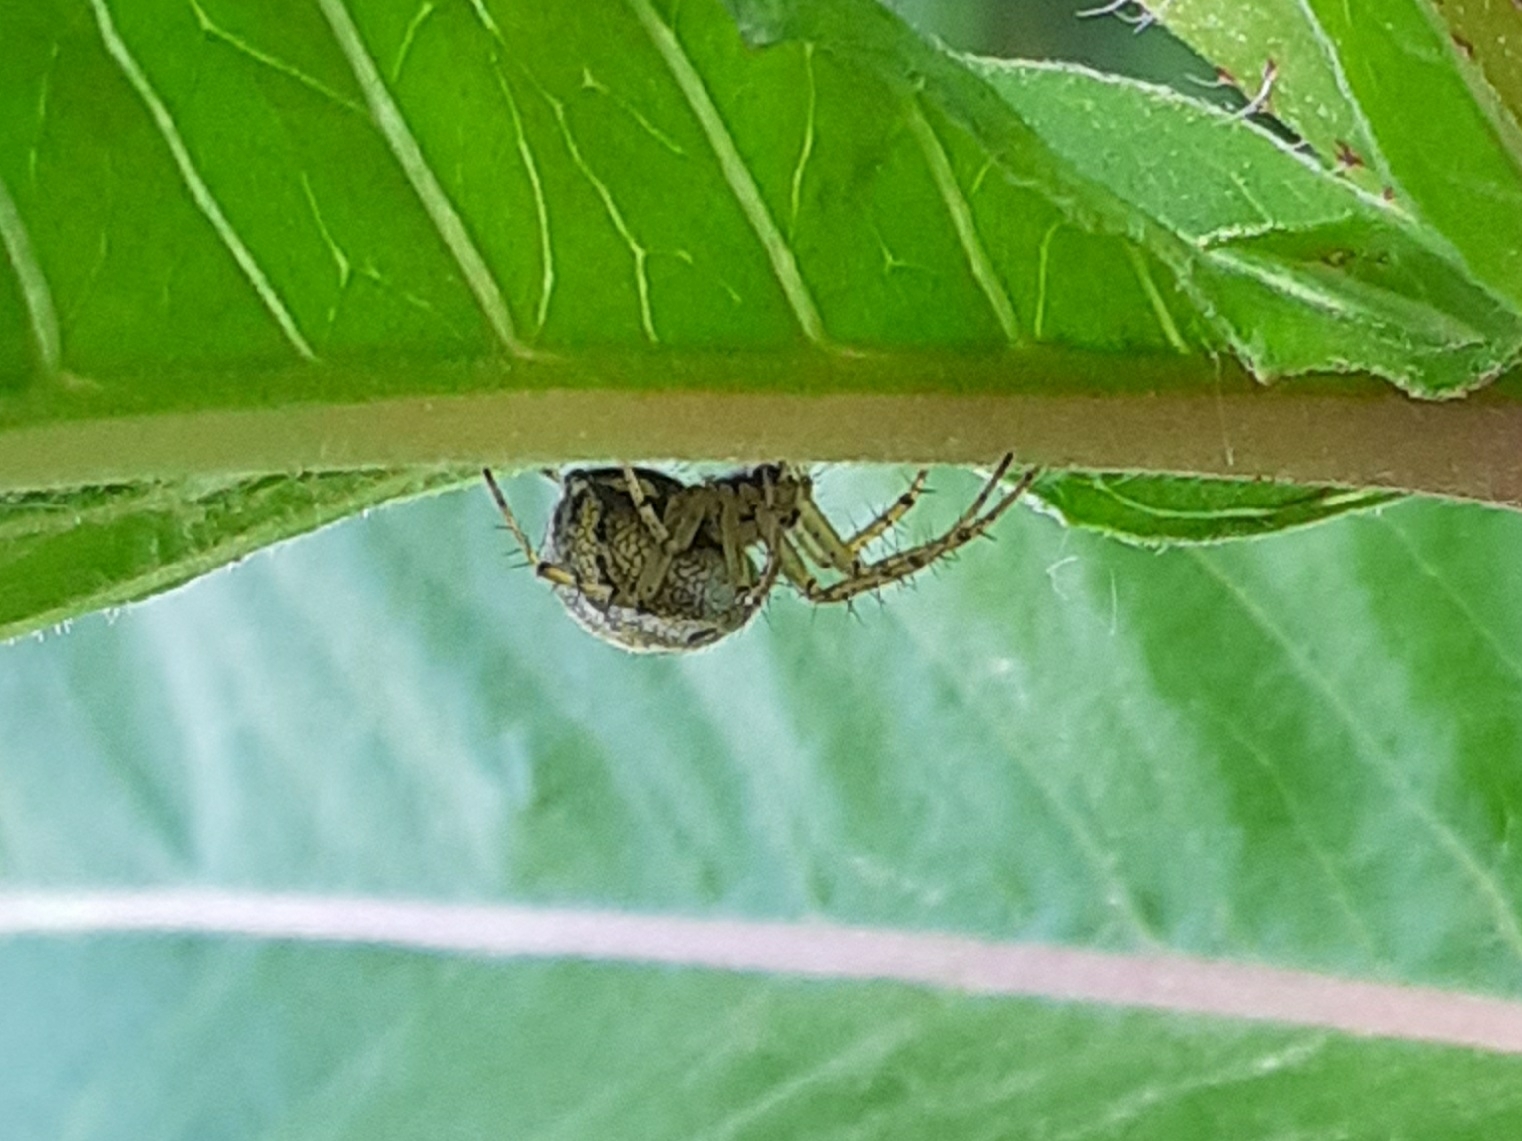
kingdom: Animalia
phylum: Arthropoda
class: Arachnida
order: Araneae
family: Araneidae
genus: Mangora
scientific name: Mangora acalypha
